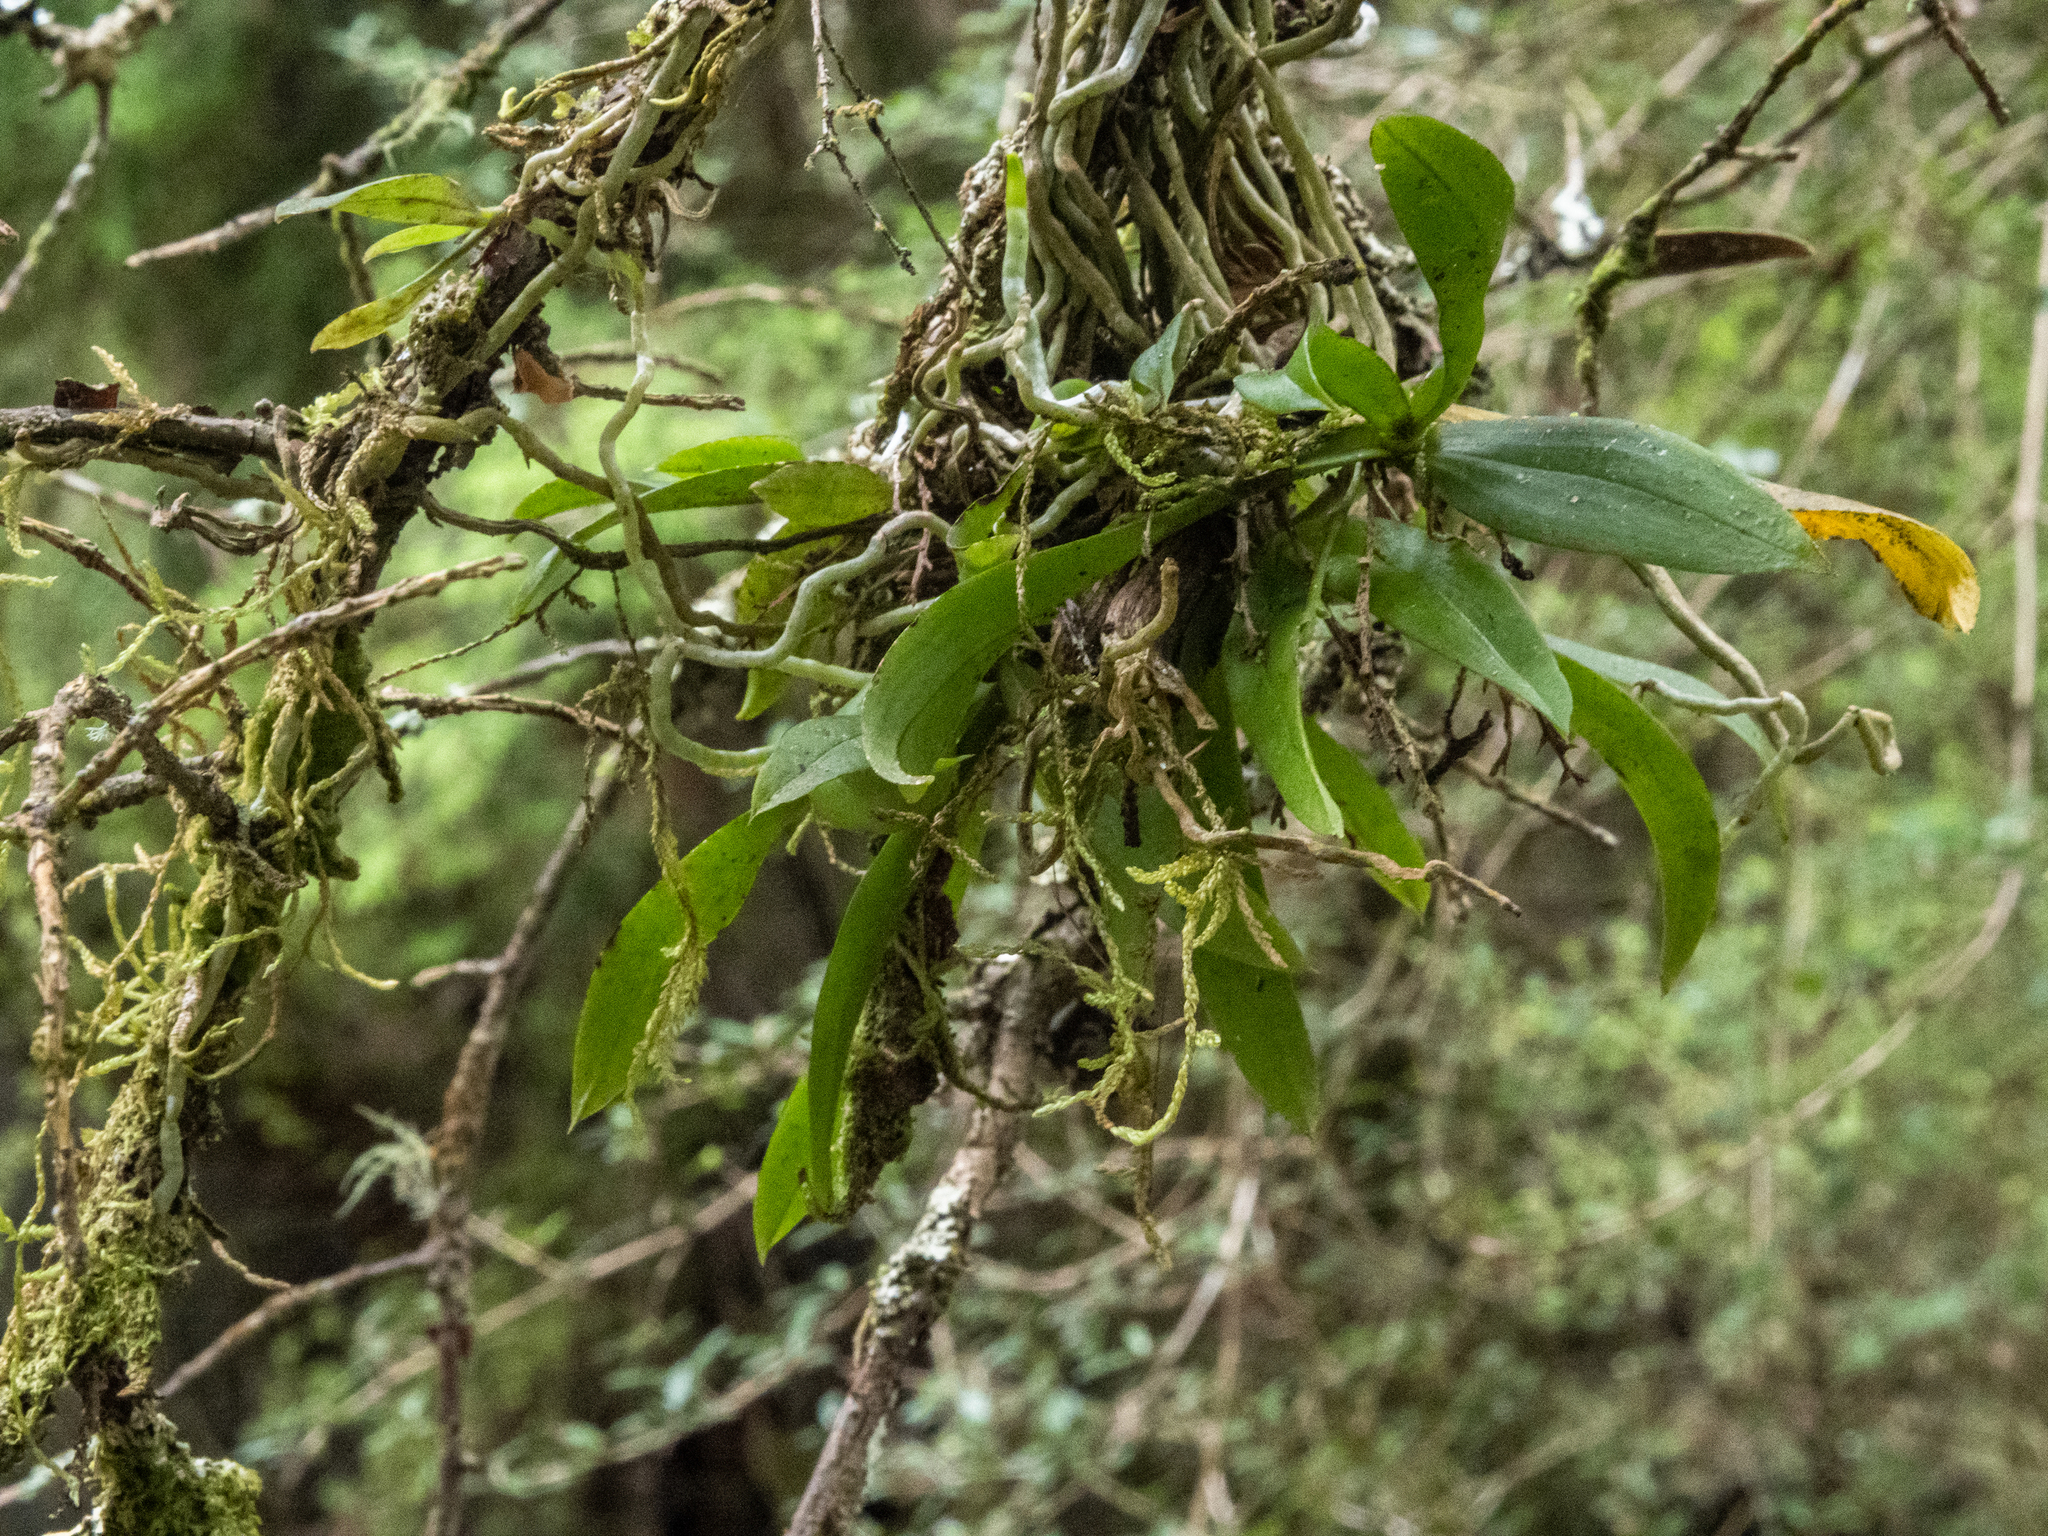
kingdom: Plantae
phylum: Tracheophyta
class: Liliopsida
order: Asparagales
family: Orchidaceae
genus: Drymoanthus
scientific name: Drymoanthus adversus
